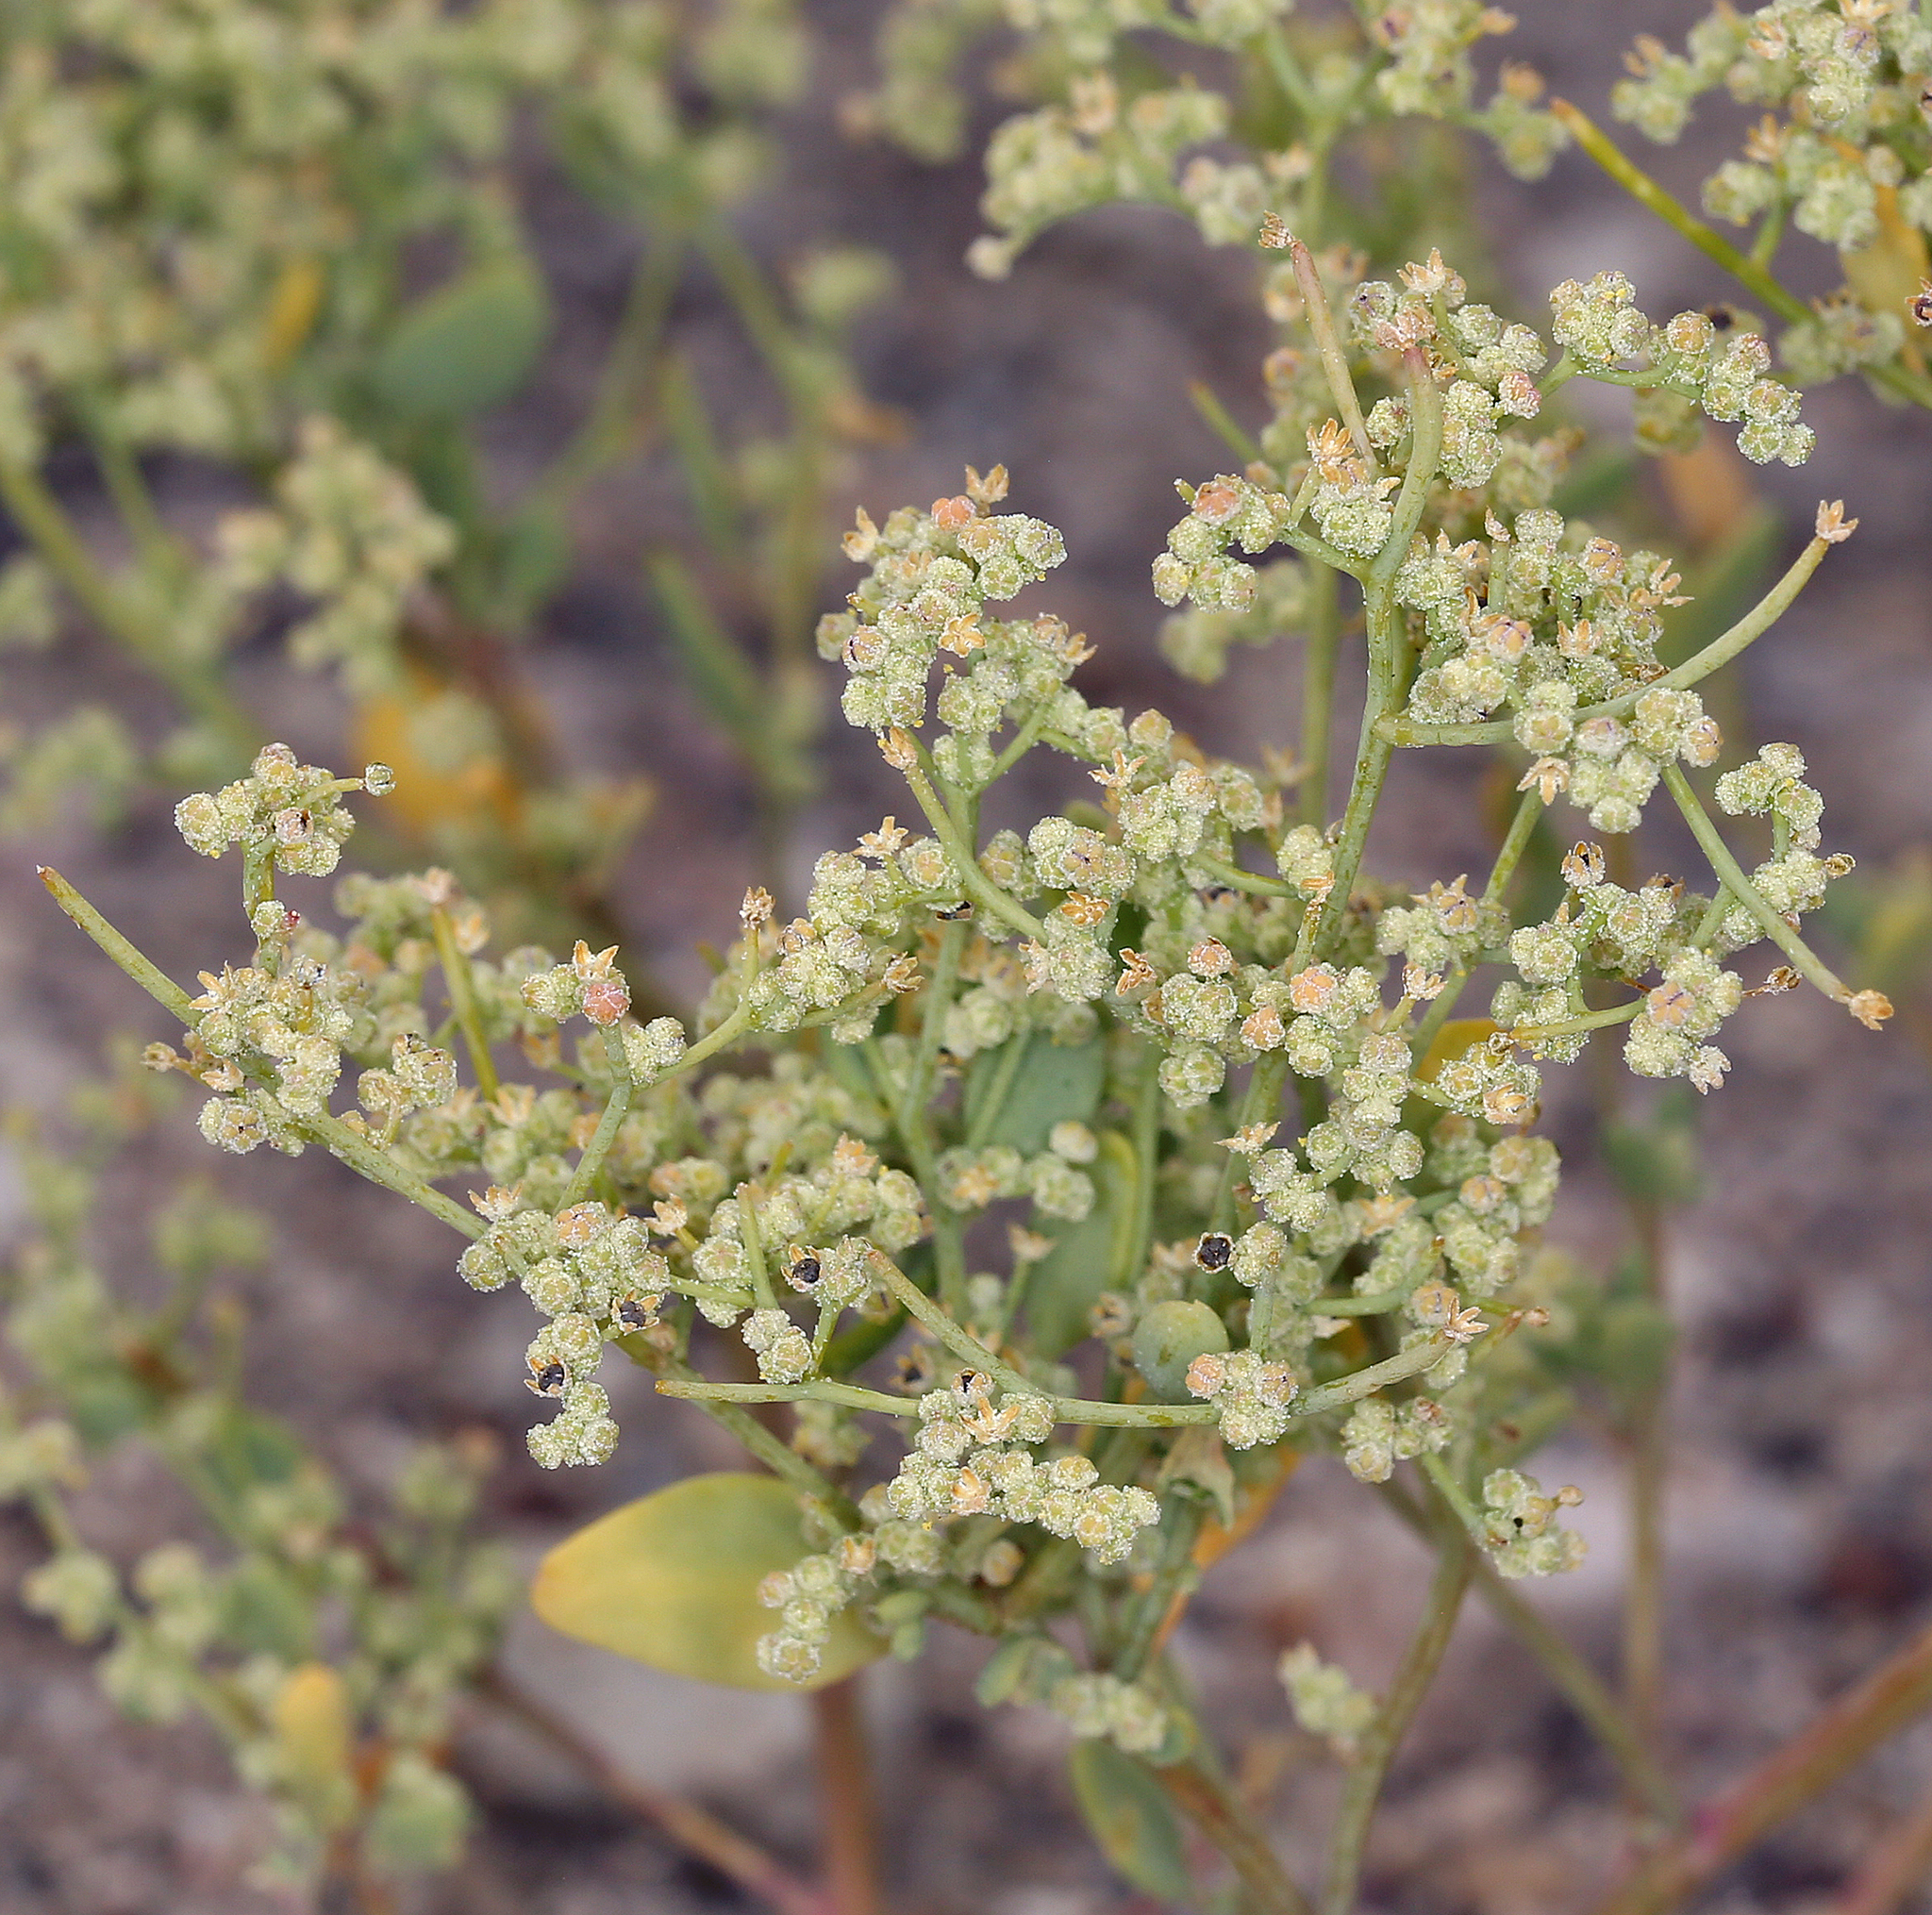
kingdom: Plantae
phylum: Tracheophyta
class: Magnoliopsida
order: Caryophyllales
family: Amaranthaceae
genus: Chenopodium
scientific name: Chenopodium nevadense
